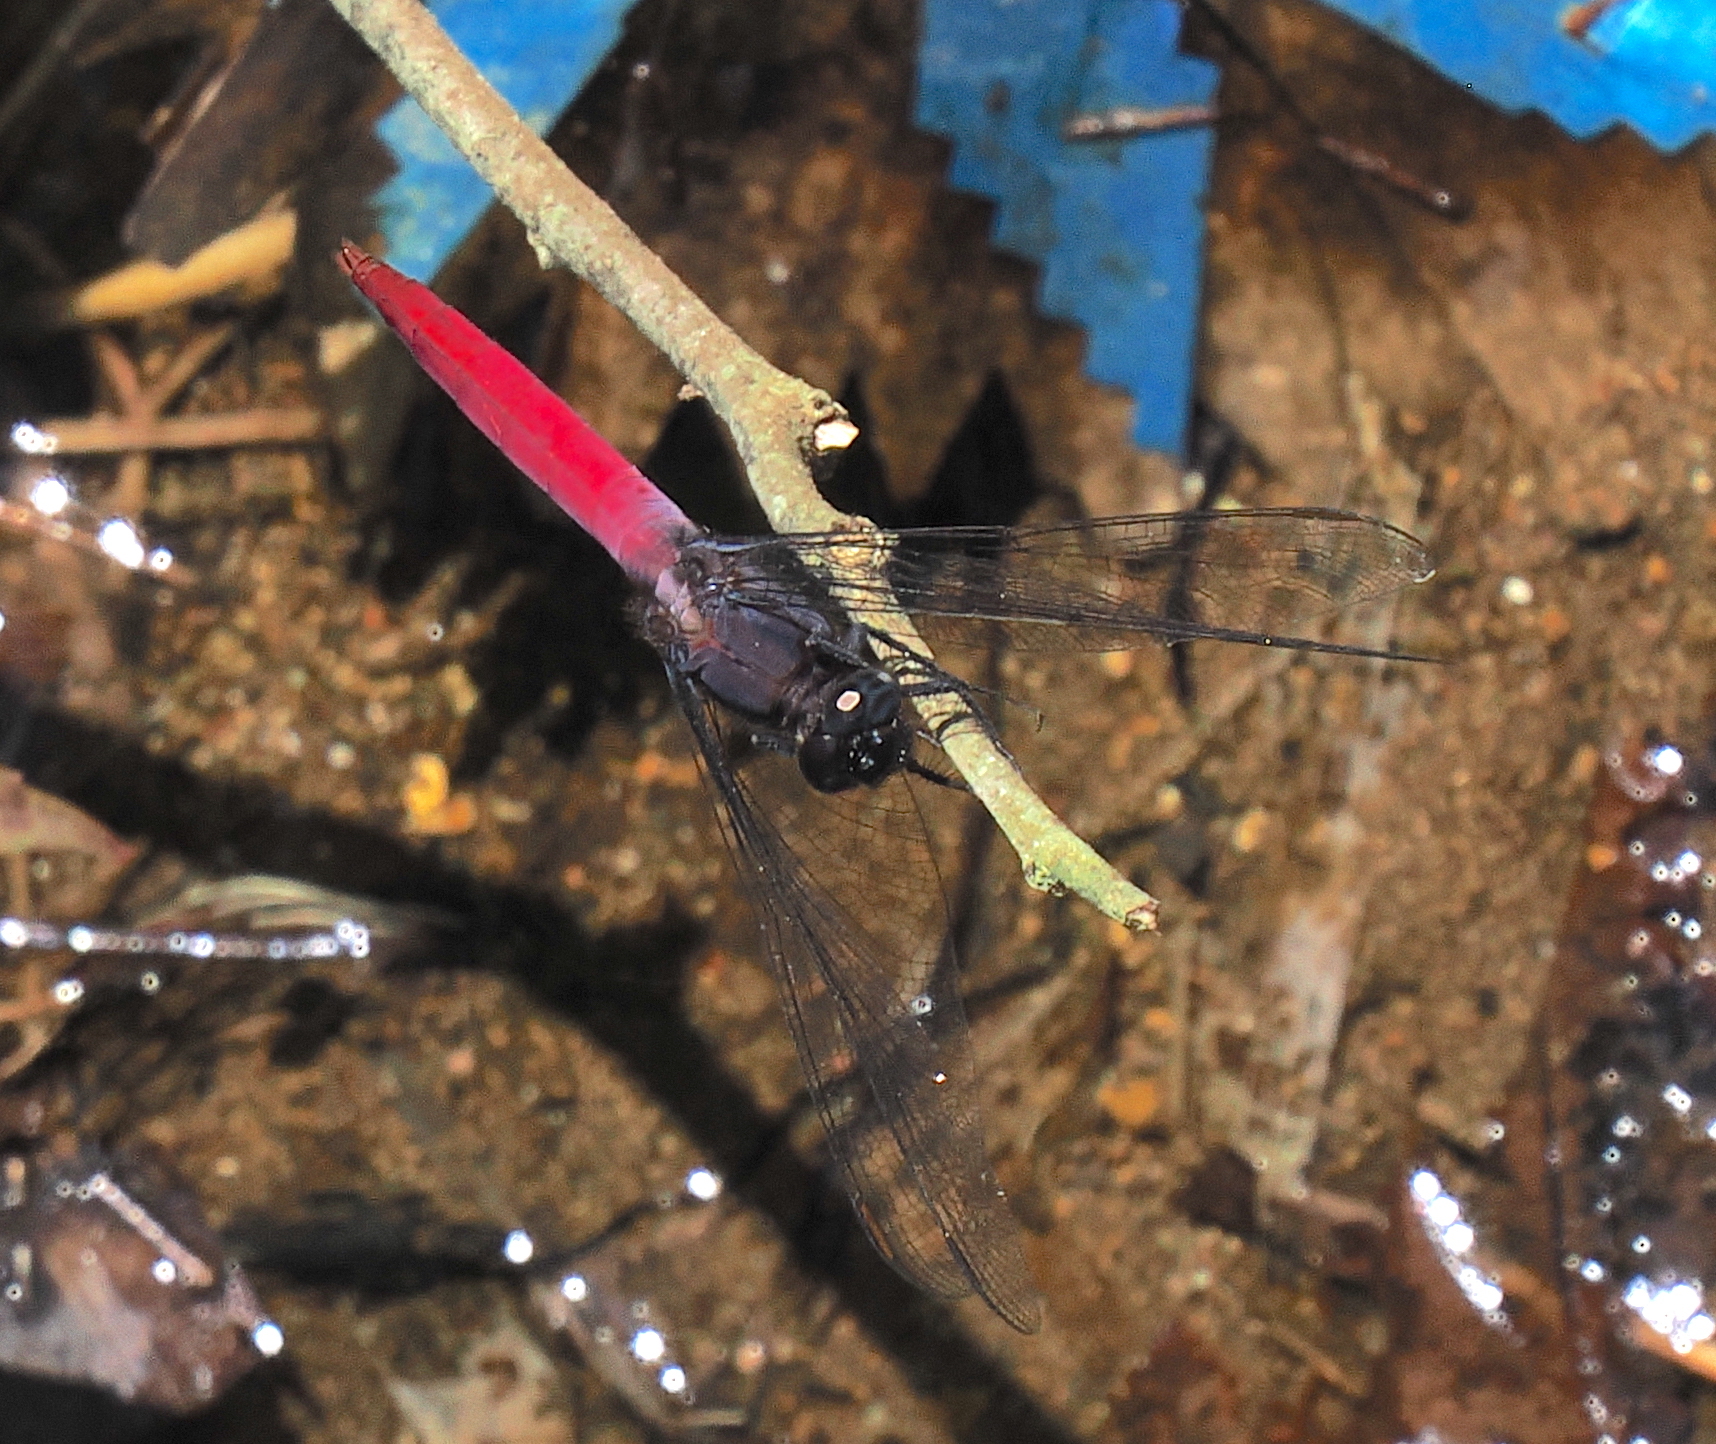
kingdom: Animalia
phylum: Arthropoda
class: Insecta
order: Odonata
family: Libellulidae
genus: Orthetrum
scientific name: Orthetrum pruinosum
